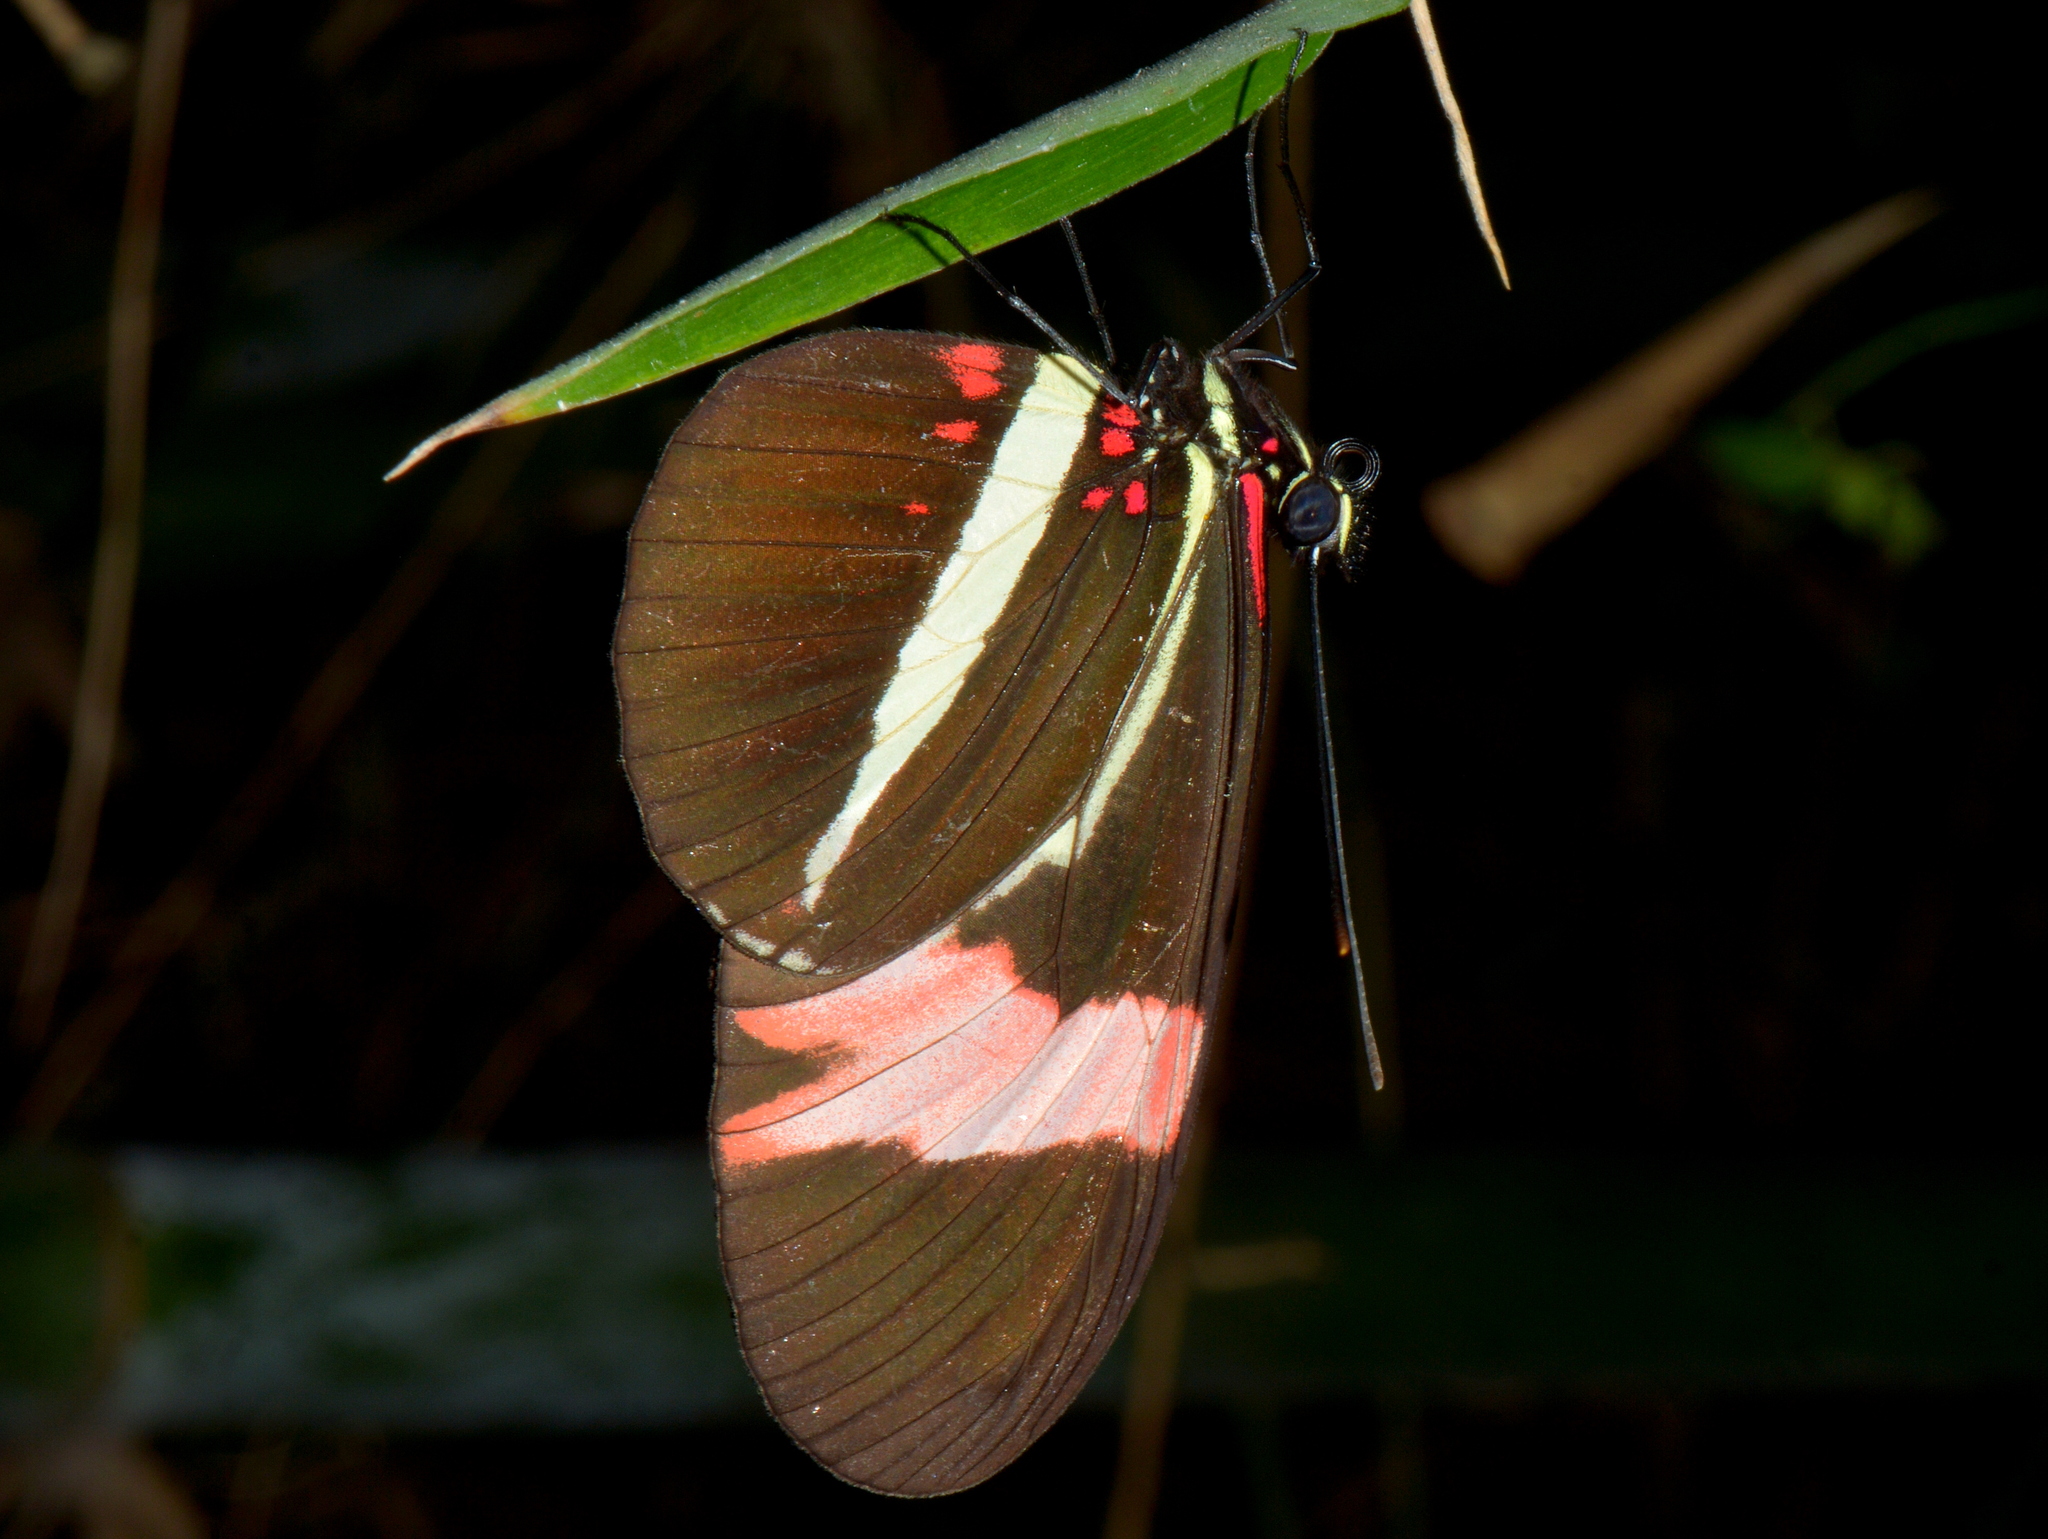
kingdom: Animalia
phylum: Arthropoda
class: Insecta
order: Lepidoptera
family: Nymphalidae
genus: Heliconius
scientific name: Heliconius erato
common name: Common patch longwing
